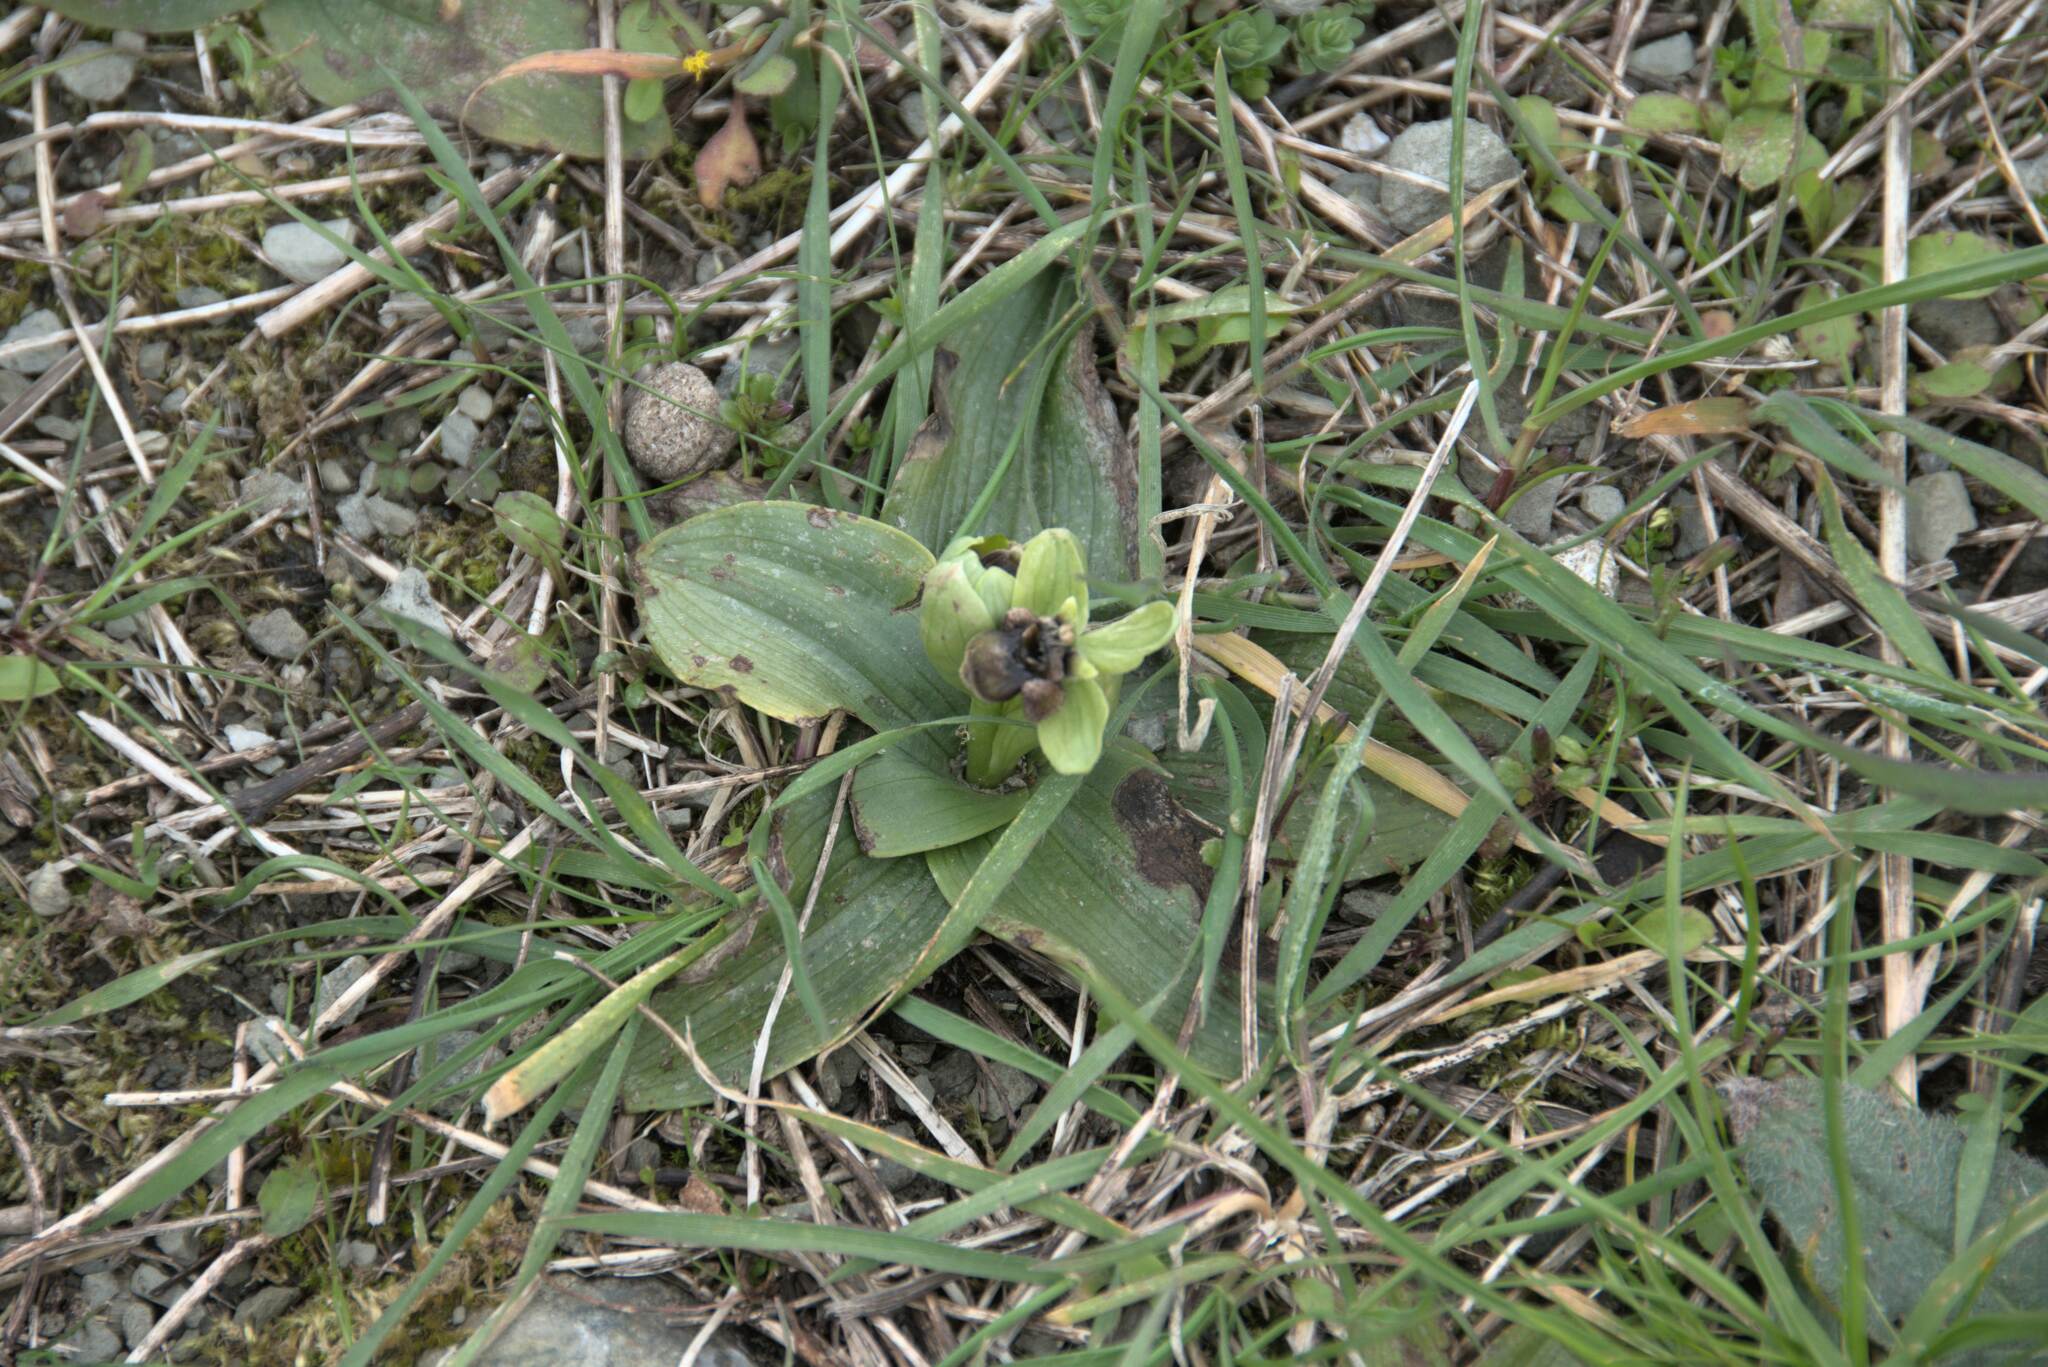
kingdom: Plantae
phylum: Tracheophyta
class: Liliopsida
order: Asparagales
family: Orchidaceae
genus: Ophrys
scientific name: Ophrys bombyliflora
